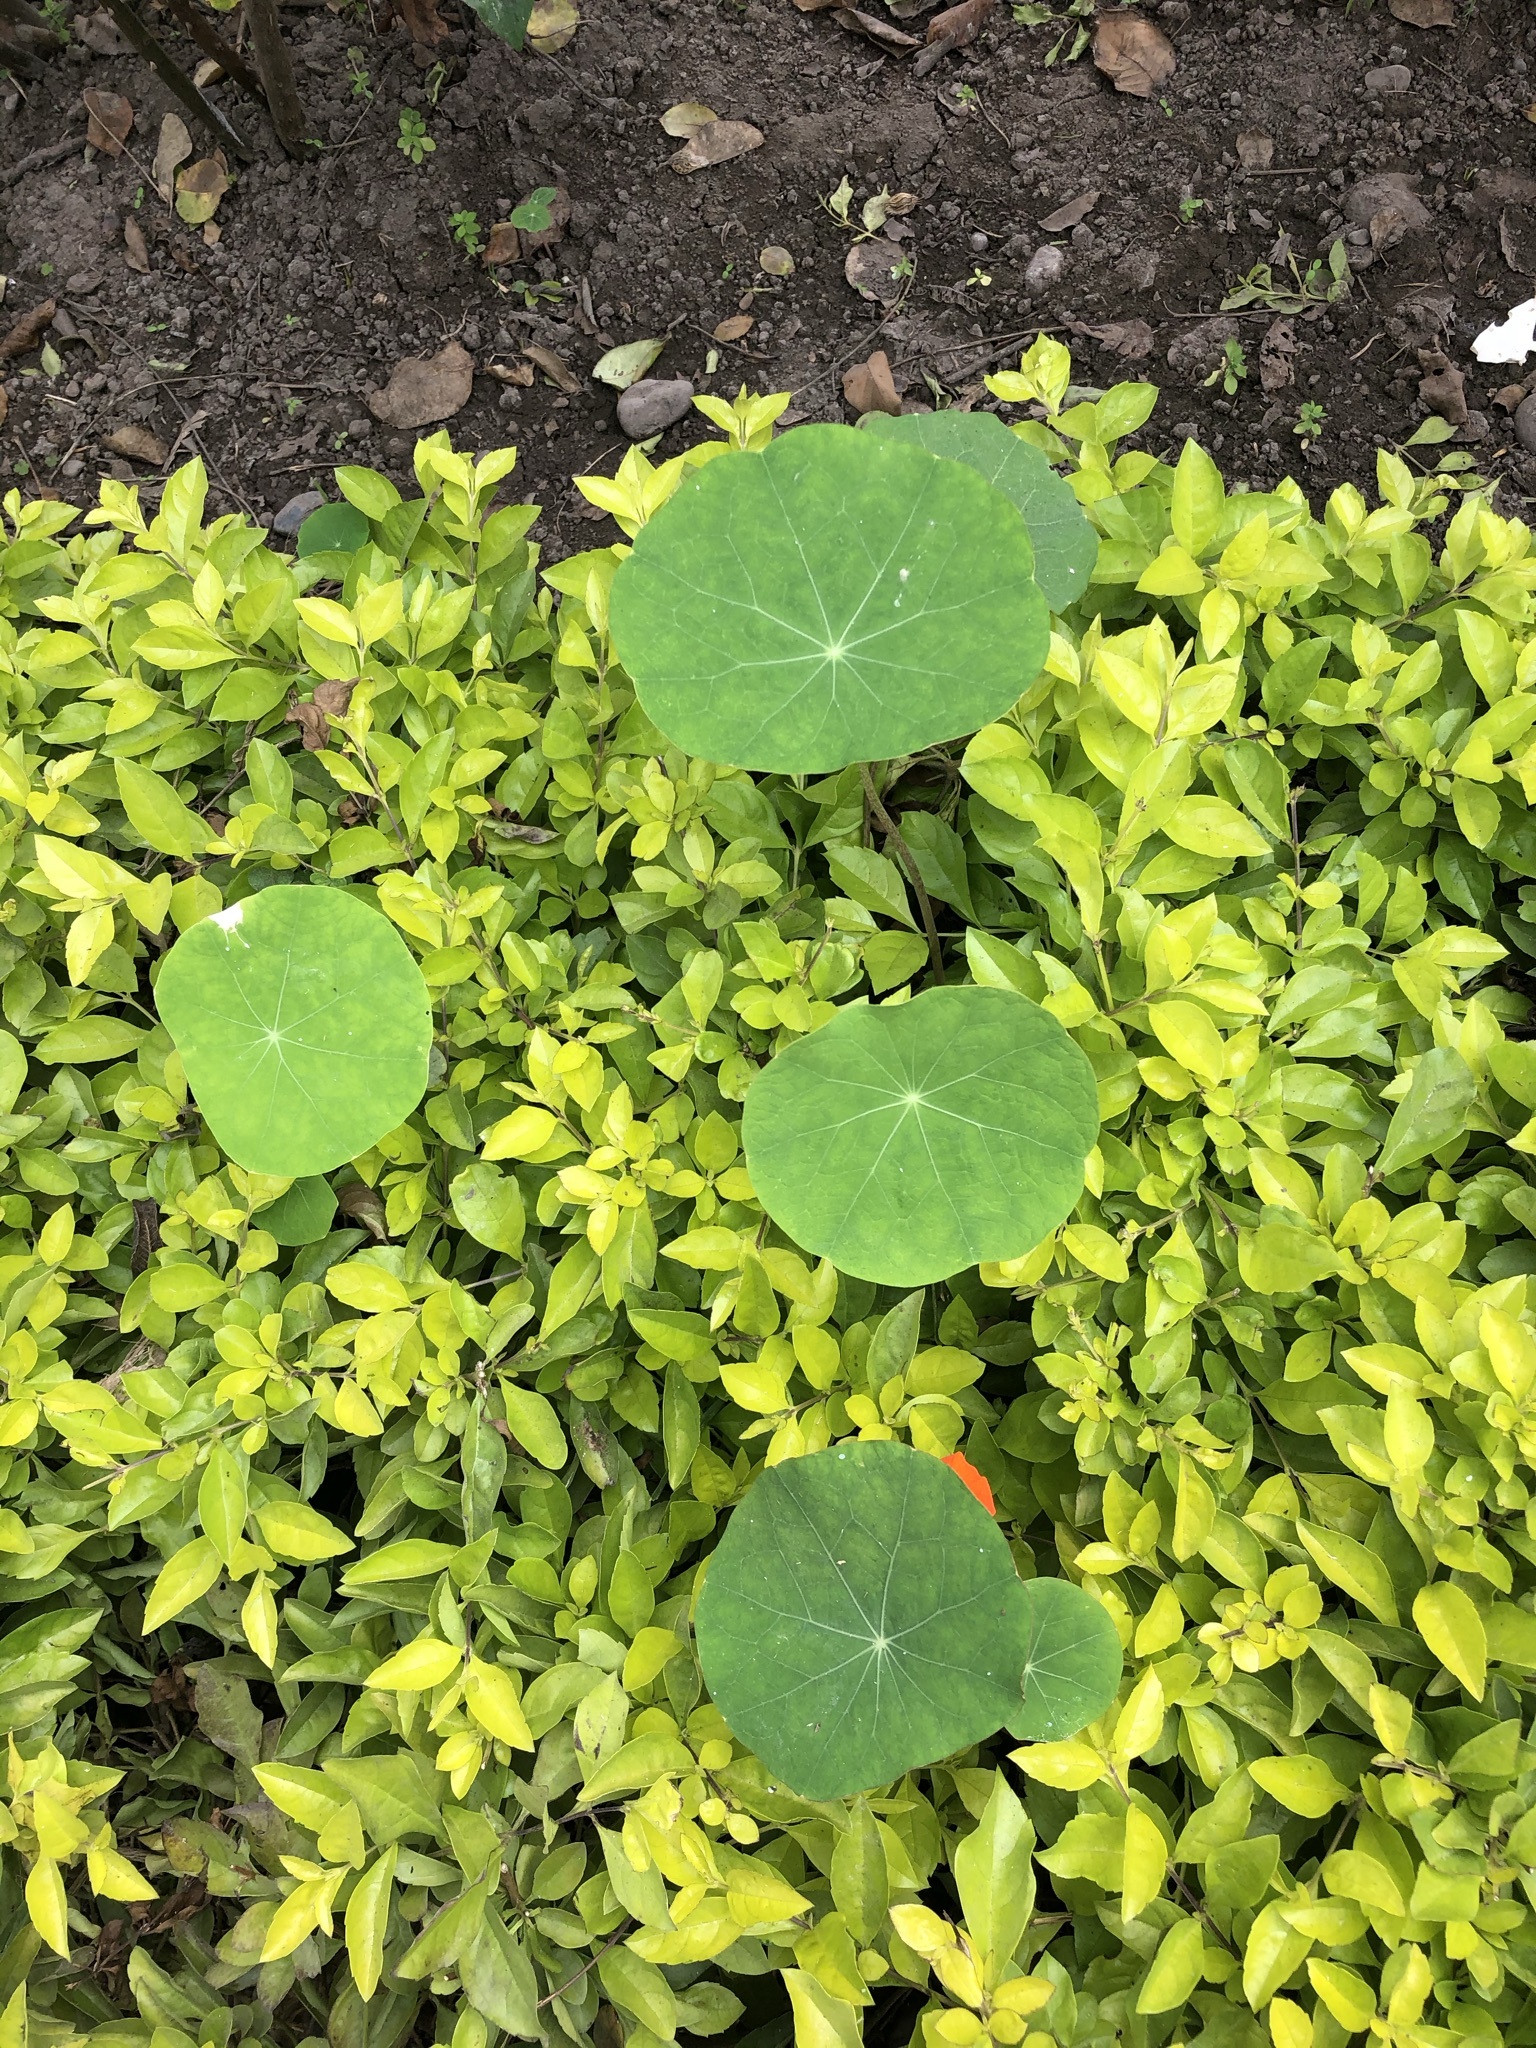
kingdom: Plantae
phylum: Tracheophyta
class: Magnoliopsida
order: Brassicales
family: Tropaeolaceae
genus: Tropaeolum
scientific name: Tropaeolum majus
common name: Nasturtium
